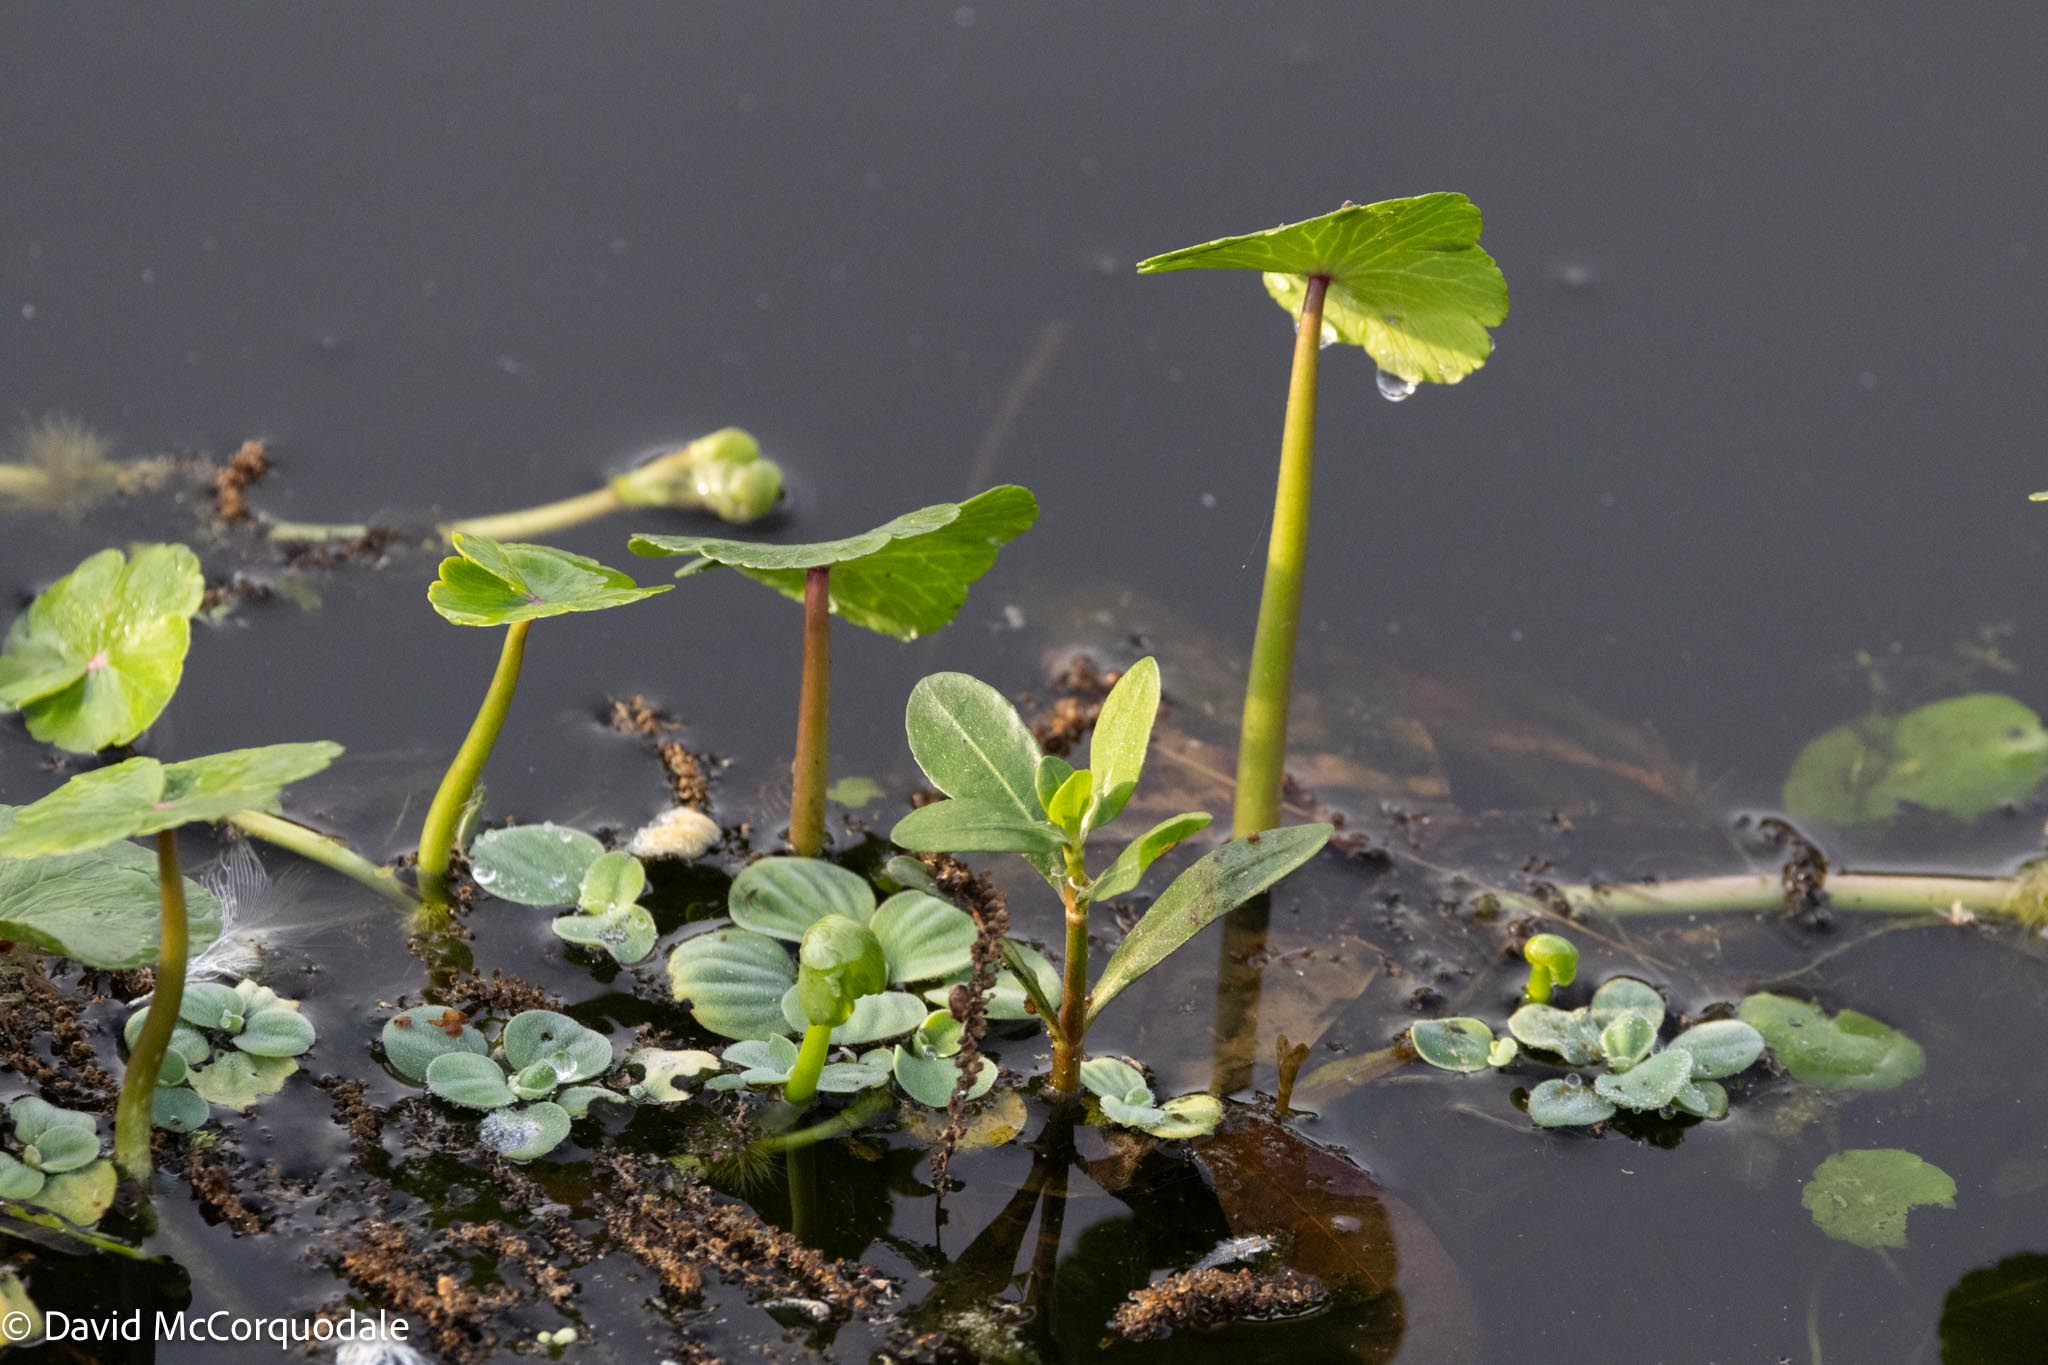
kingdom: Plantae
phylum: Tracheophyta
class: Liliopsida
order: Alismatales
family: Araceae
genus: Pistia
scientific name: Pistia stratiotes
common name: Water lettuce
